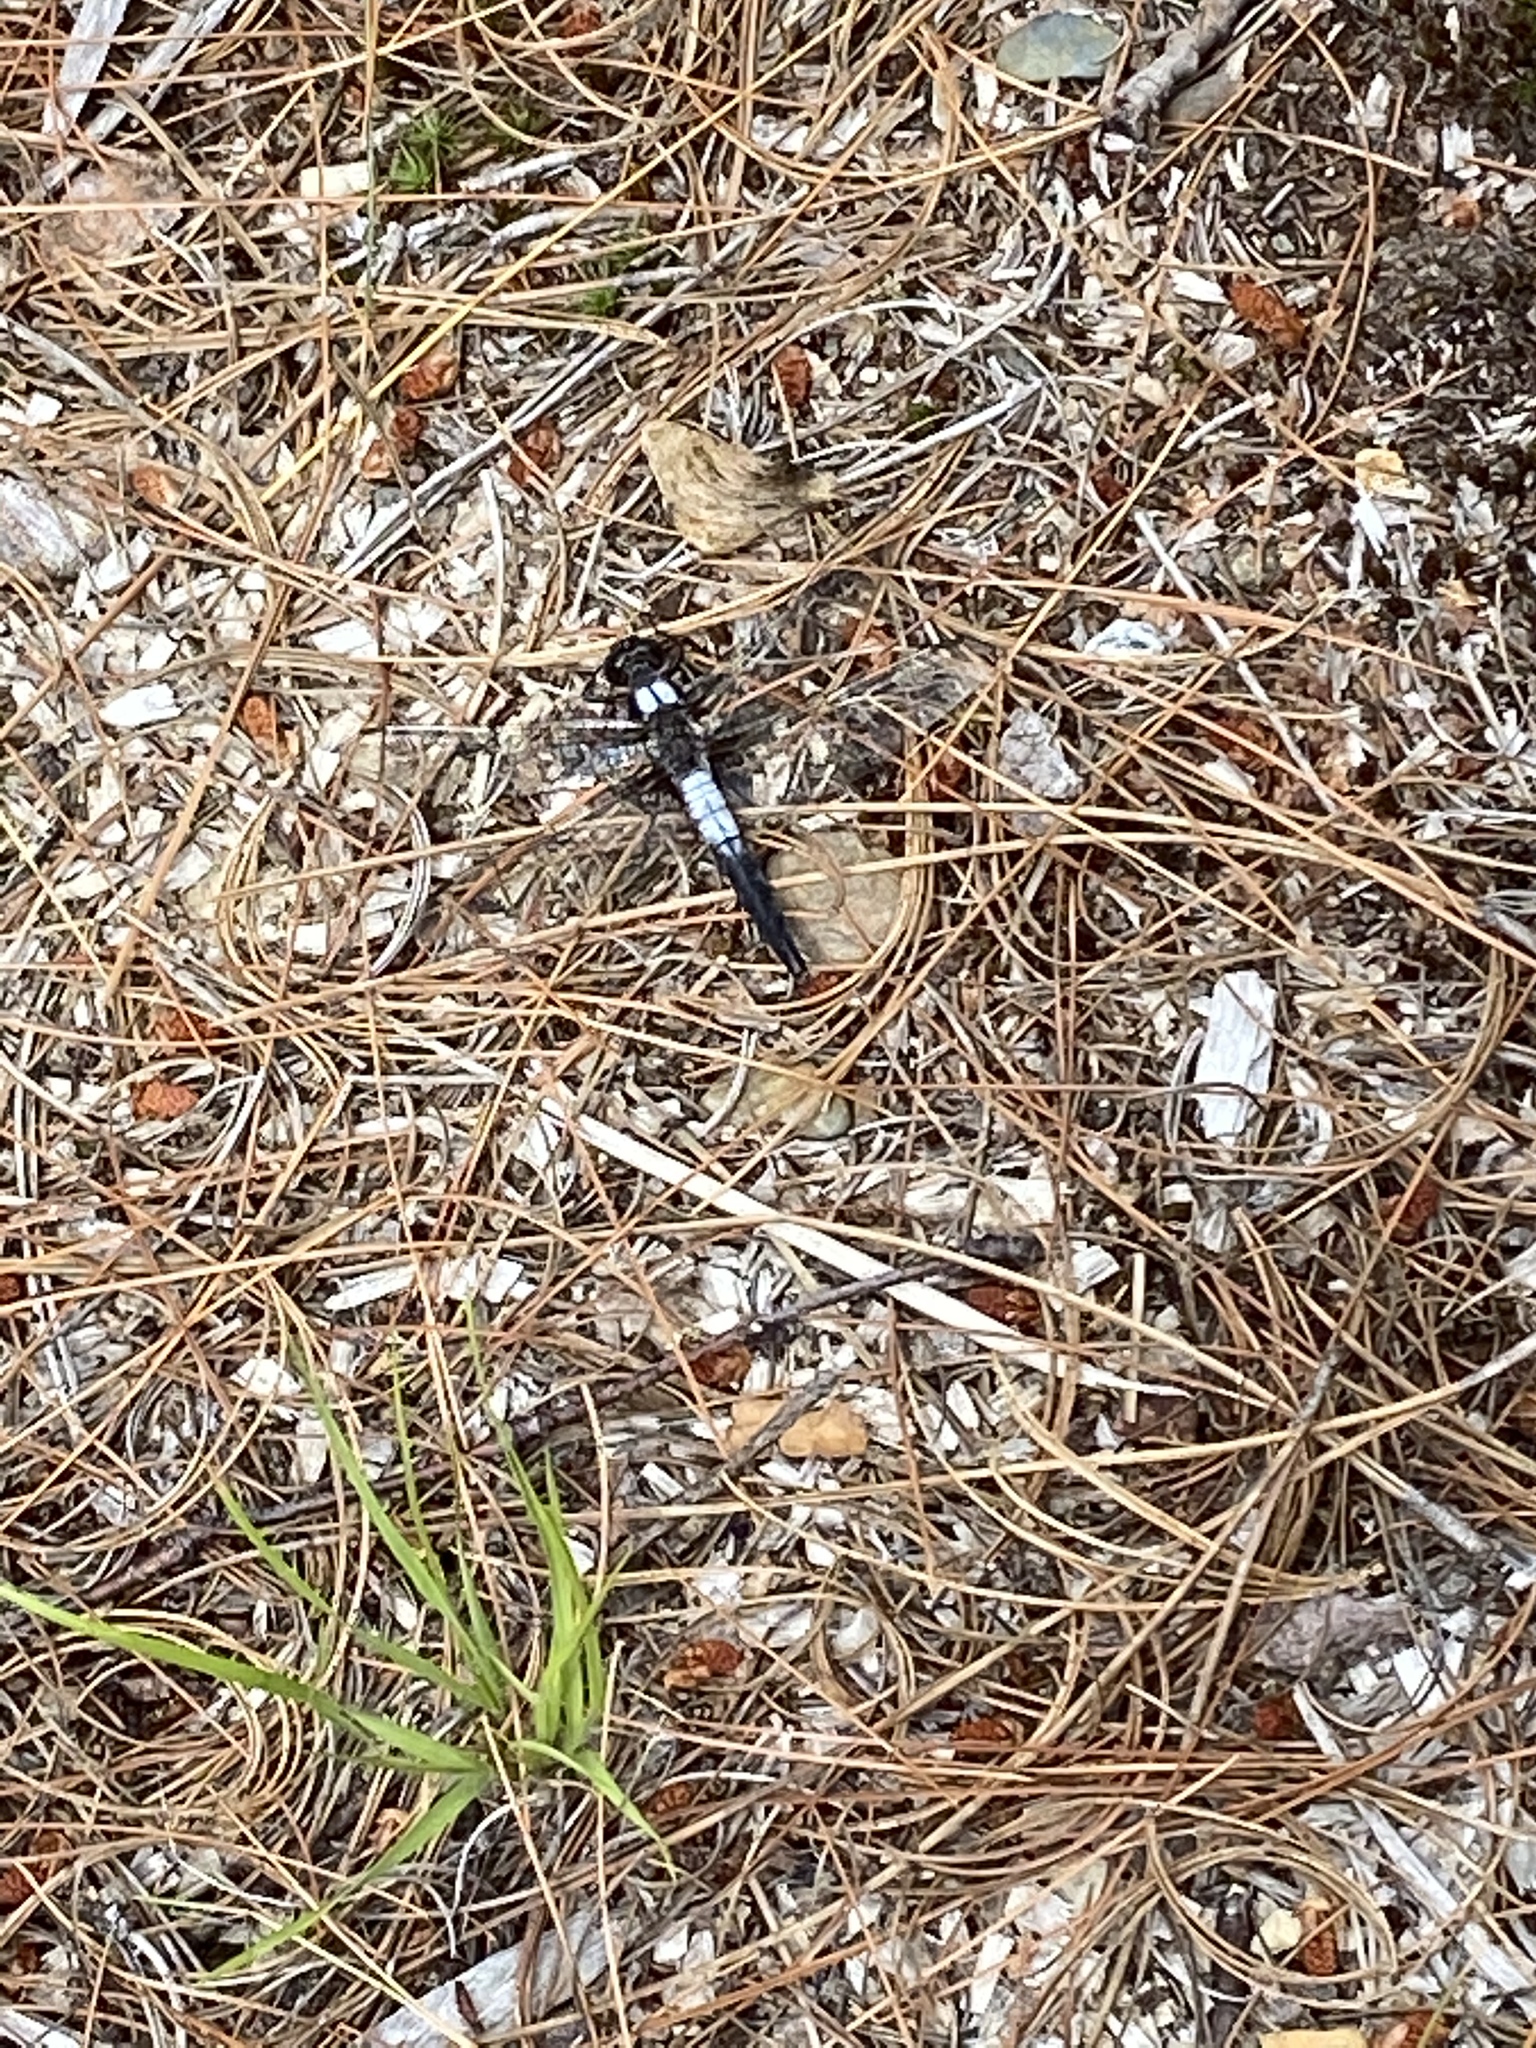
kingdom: Animalia
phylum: Arthropoda
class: Insecta
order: Odonata
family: Libellulidae
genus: Ladona
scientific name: Ladona julia
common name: Chalk-fronted corporal
